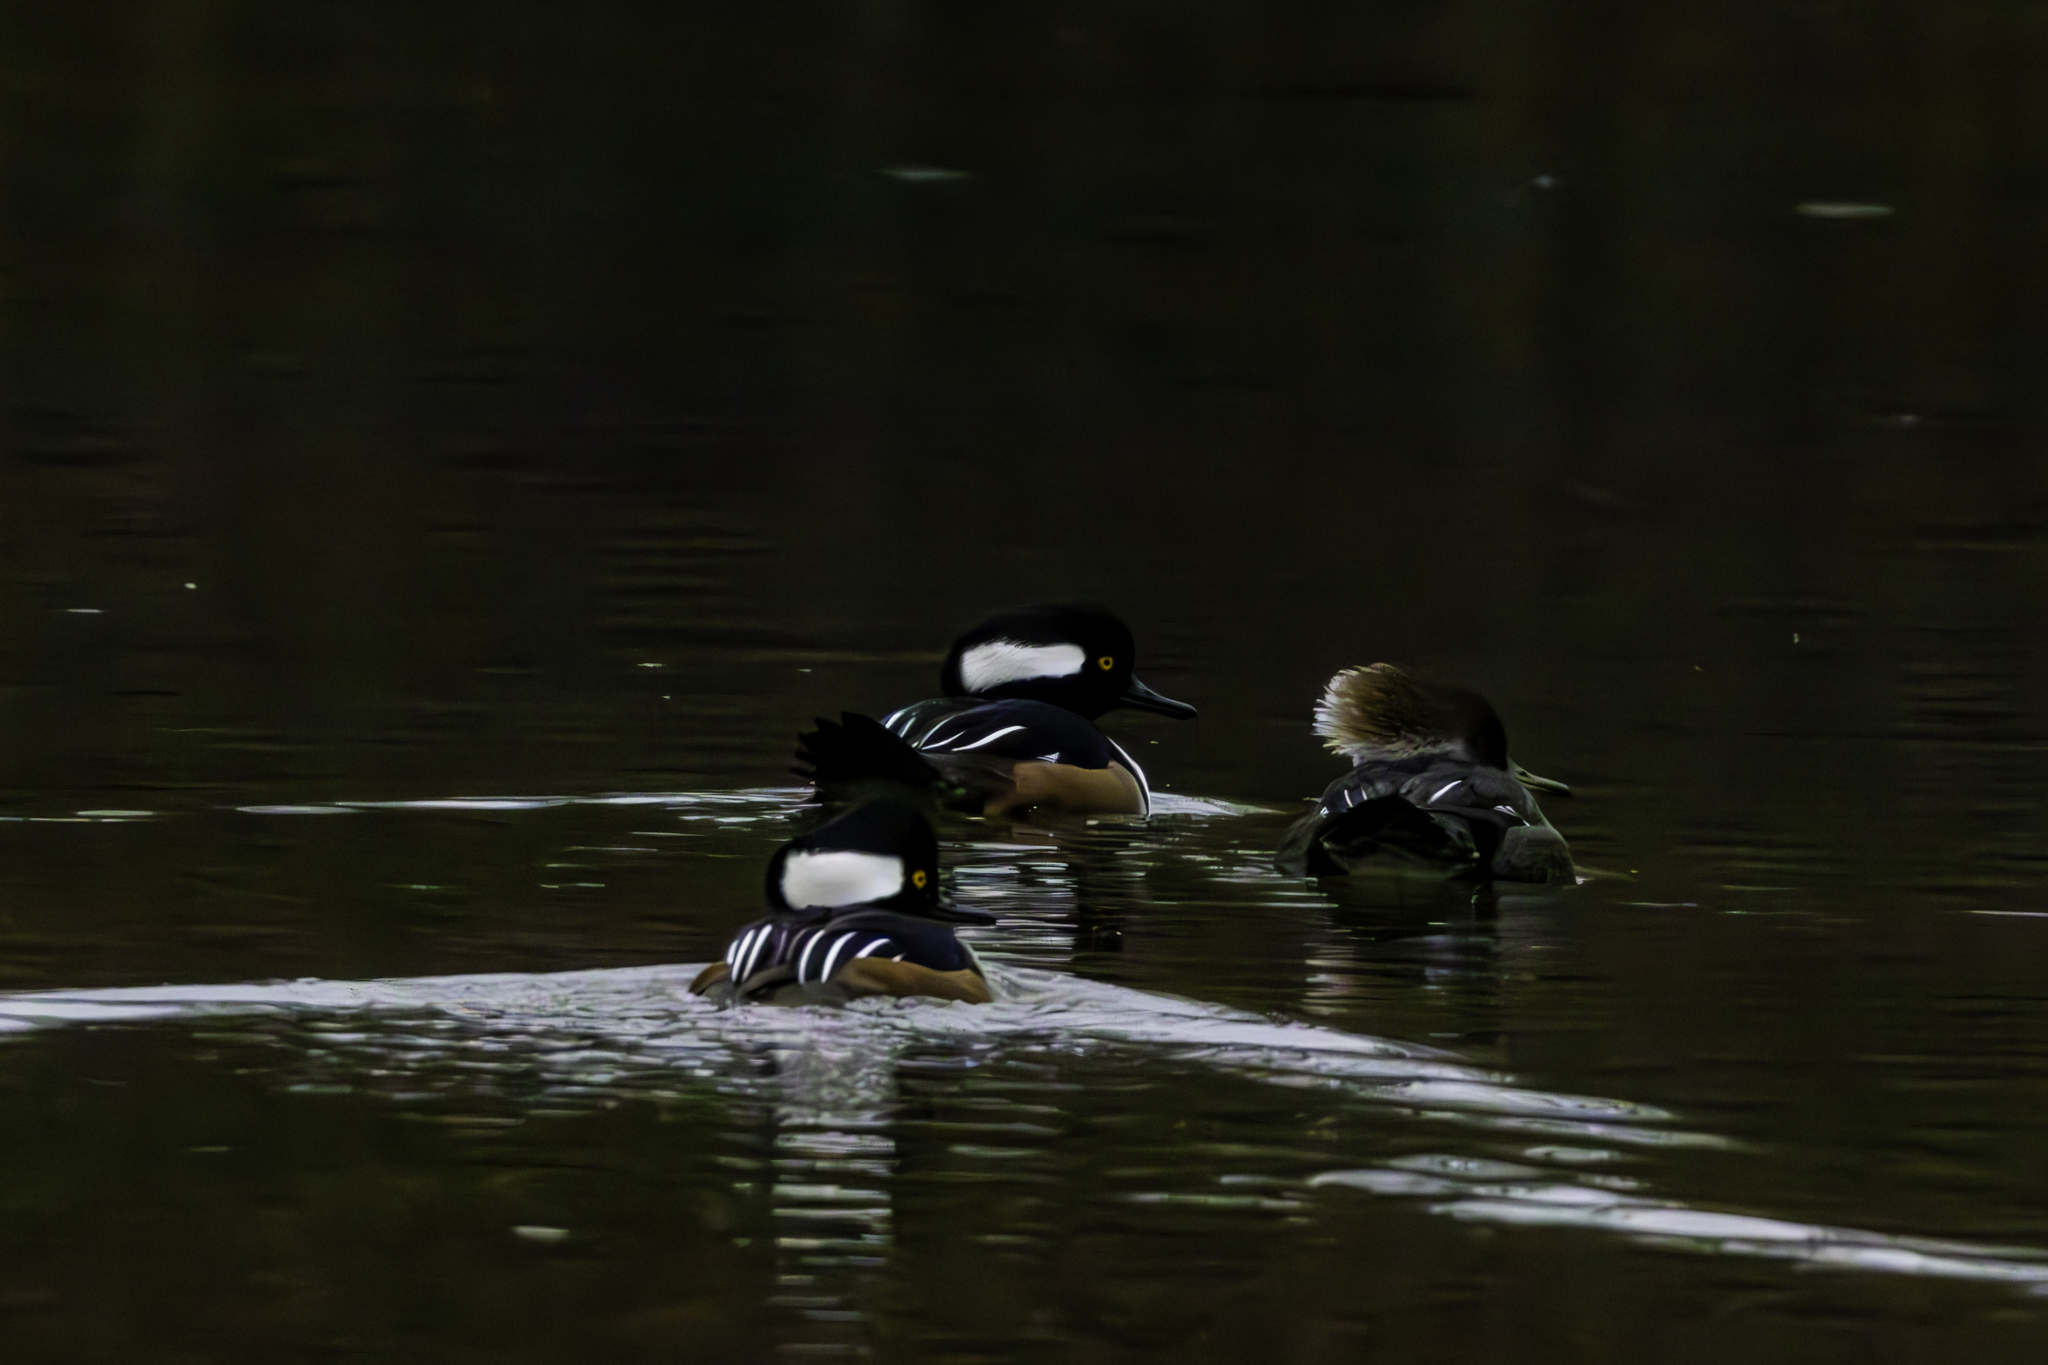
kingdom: Animalia
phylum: Chordata
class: Aves
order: Anseriformes
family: Anatidae
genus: Lophodytes
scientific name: Lophodytes cucullatus
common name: Hooded merganser
